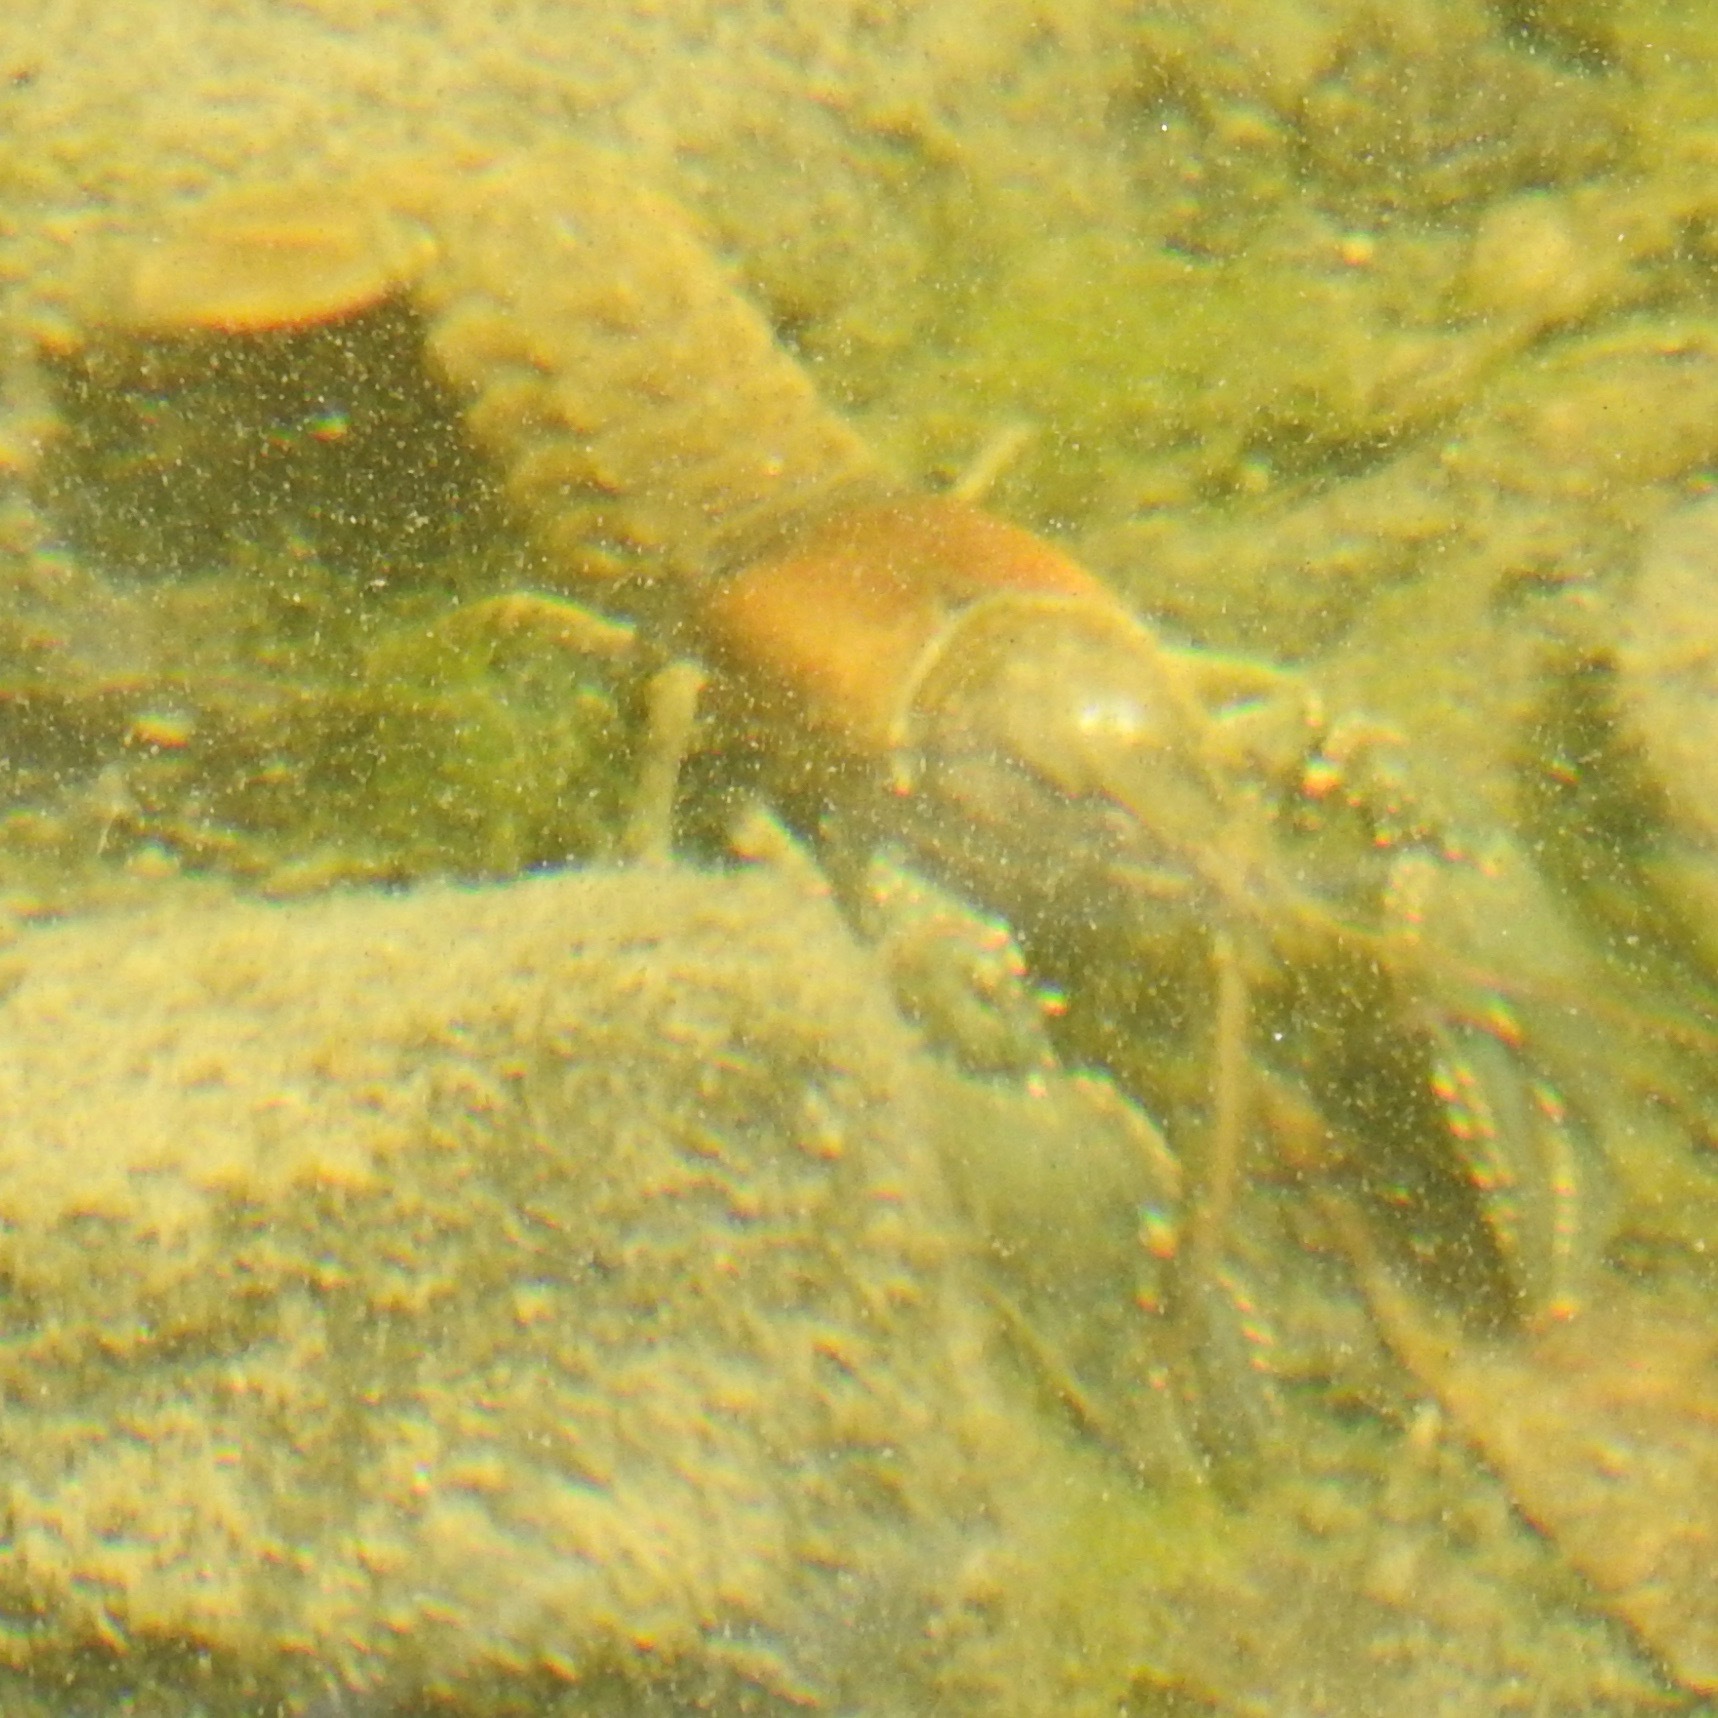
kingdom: Animalia
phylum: Arthropoda
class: Malacostraca
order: Decapoda
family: Cambaridae
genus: Faxonius
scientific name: Faxonius virilis
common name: Virile crayfish
